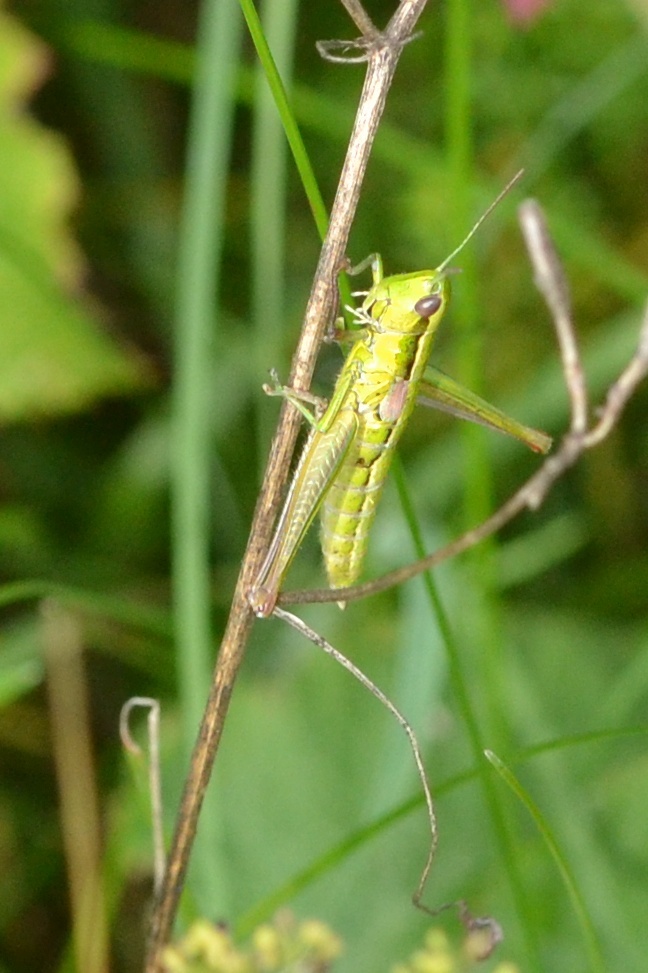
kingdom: Animalia
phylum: Arthropoda
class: Insecta
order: Orthoptera
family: Acrididae
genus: Euthystira
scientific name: Euthystira brachyptera
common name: Small gold grasshopper
